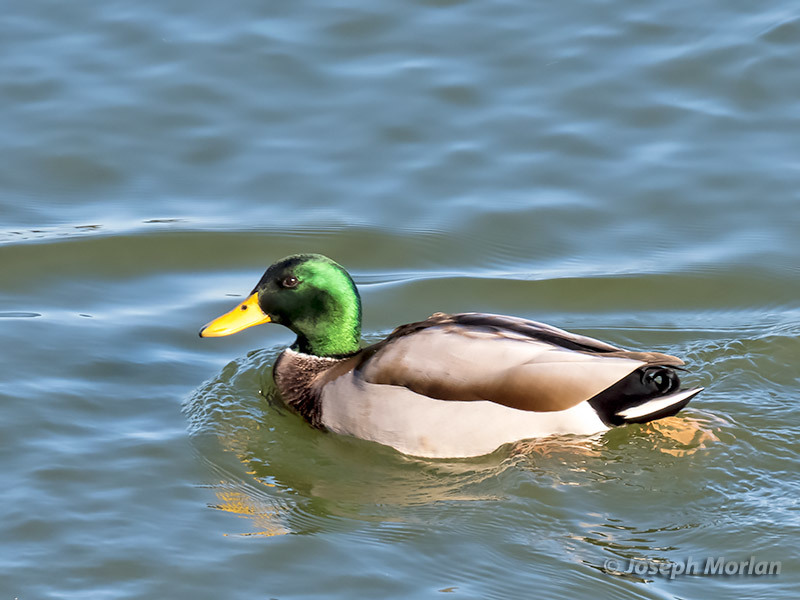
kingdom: Animalia
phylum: Chordata
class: Aves
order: Anseriformes
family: Anatidae
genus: Anas
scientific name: Anas platyrhynchos
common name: Mallard
